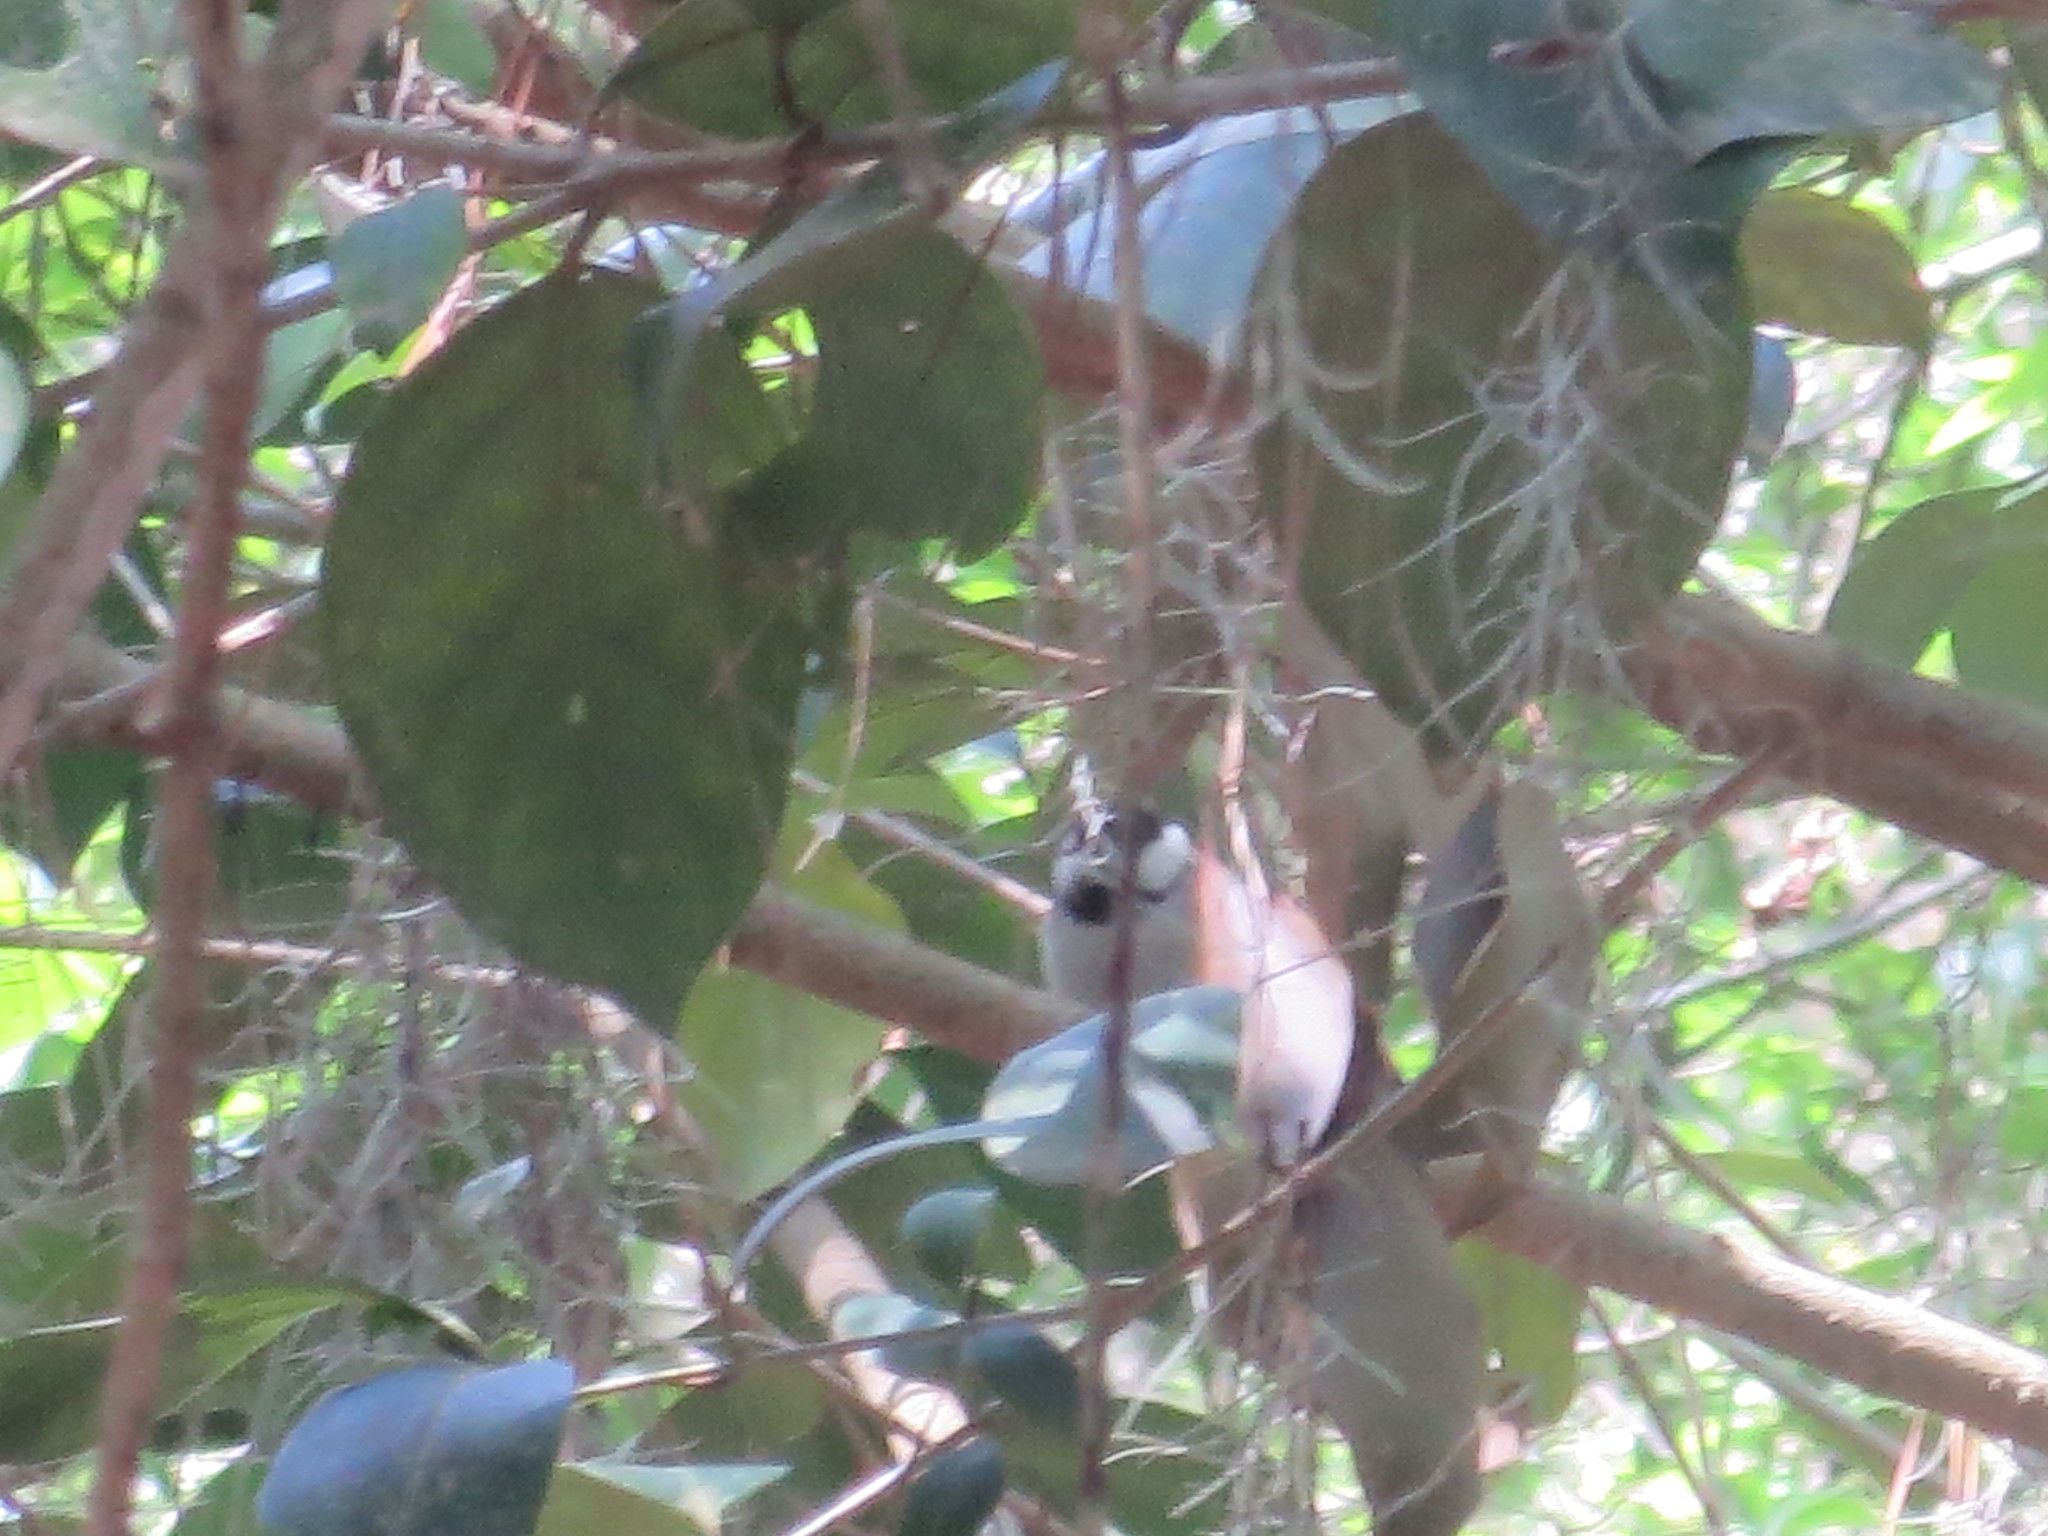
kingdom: Animalia
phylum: Chordata
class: Aves
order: Passeriformes
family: Paridae
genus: Poecile
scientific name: Poecile carolinensis
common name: Carolina chickadee
